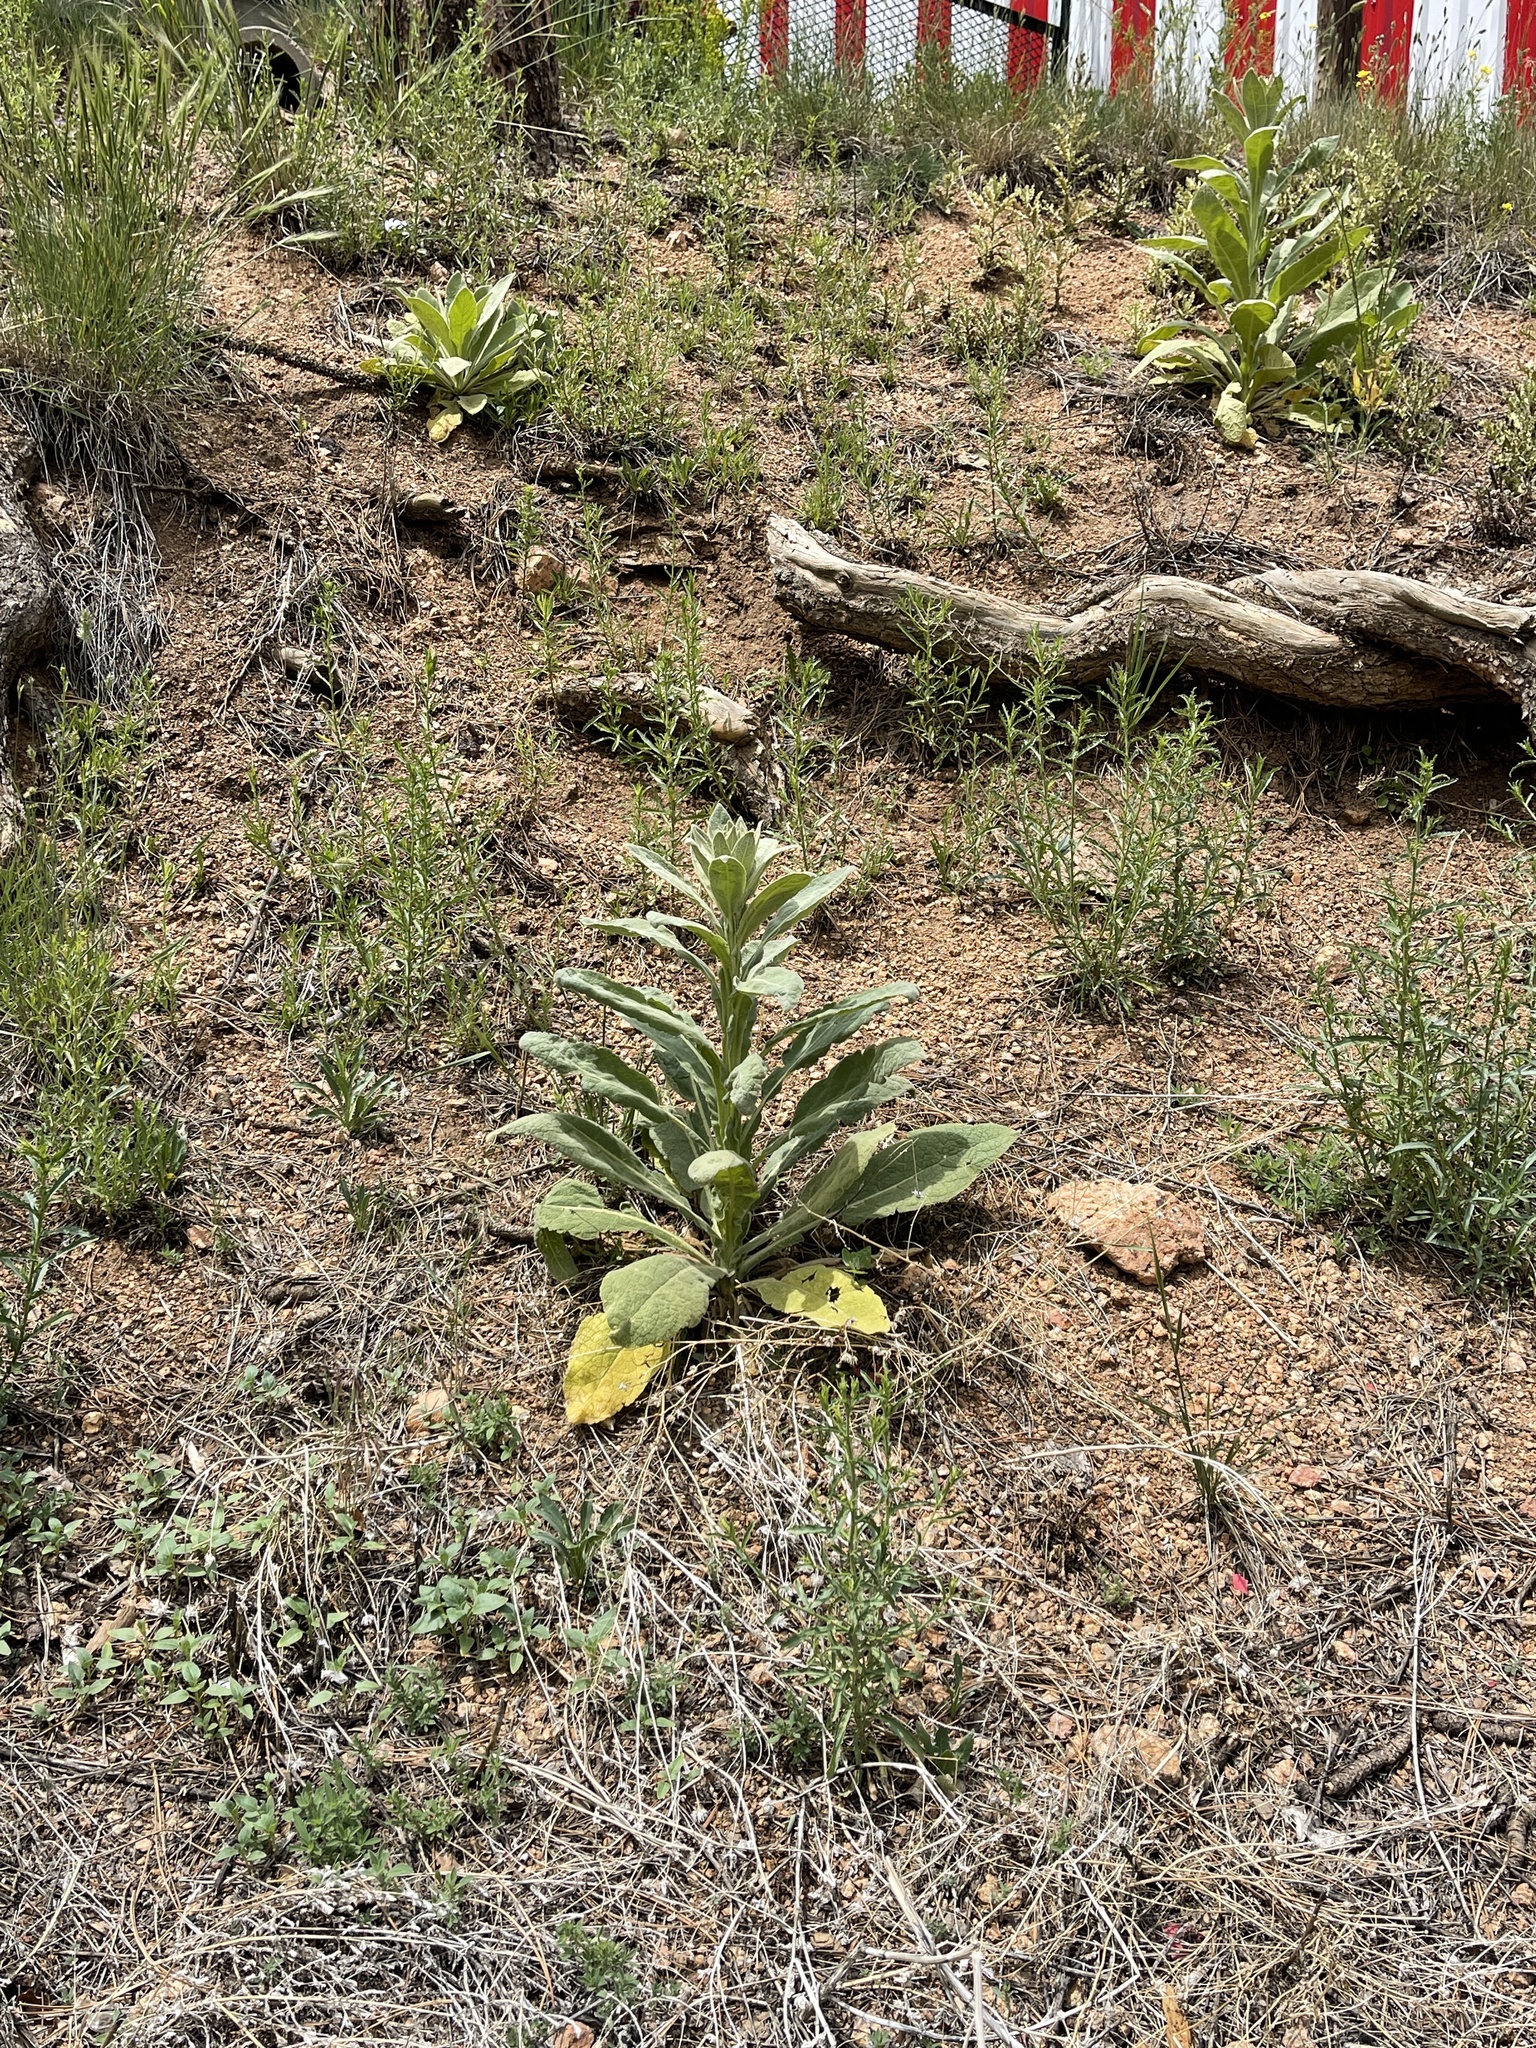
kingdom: Plantae
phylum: Tracheophyta
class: Magnoliopsida
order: Lamiales
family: Scrophulariaceae
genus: Verbascum
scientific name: Verbascum thapsus
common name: Common mullein
